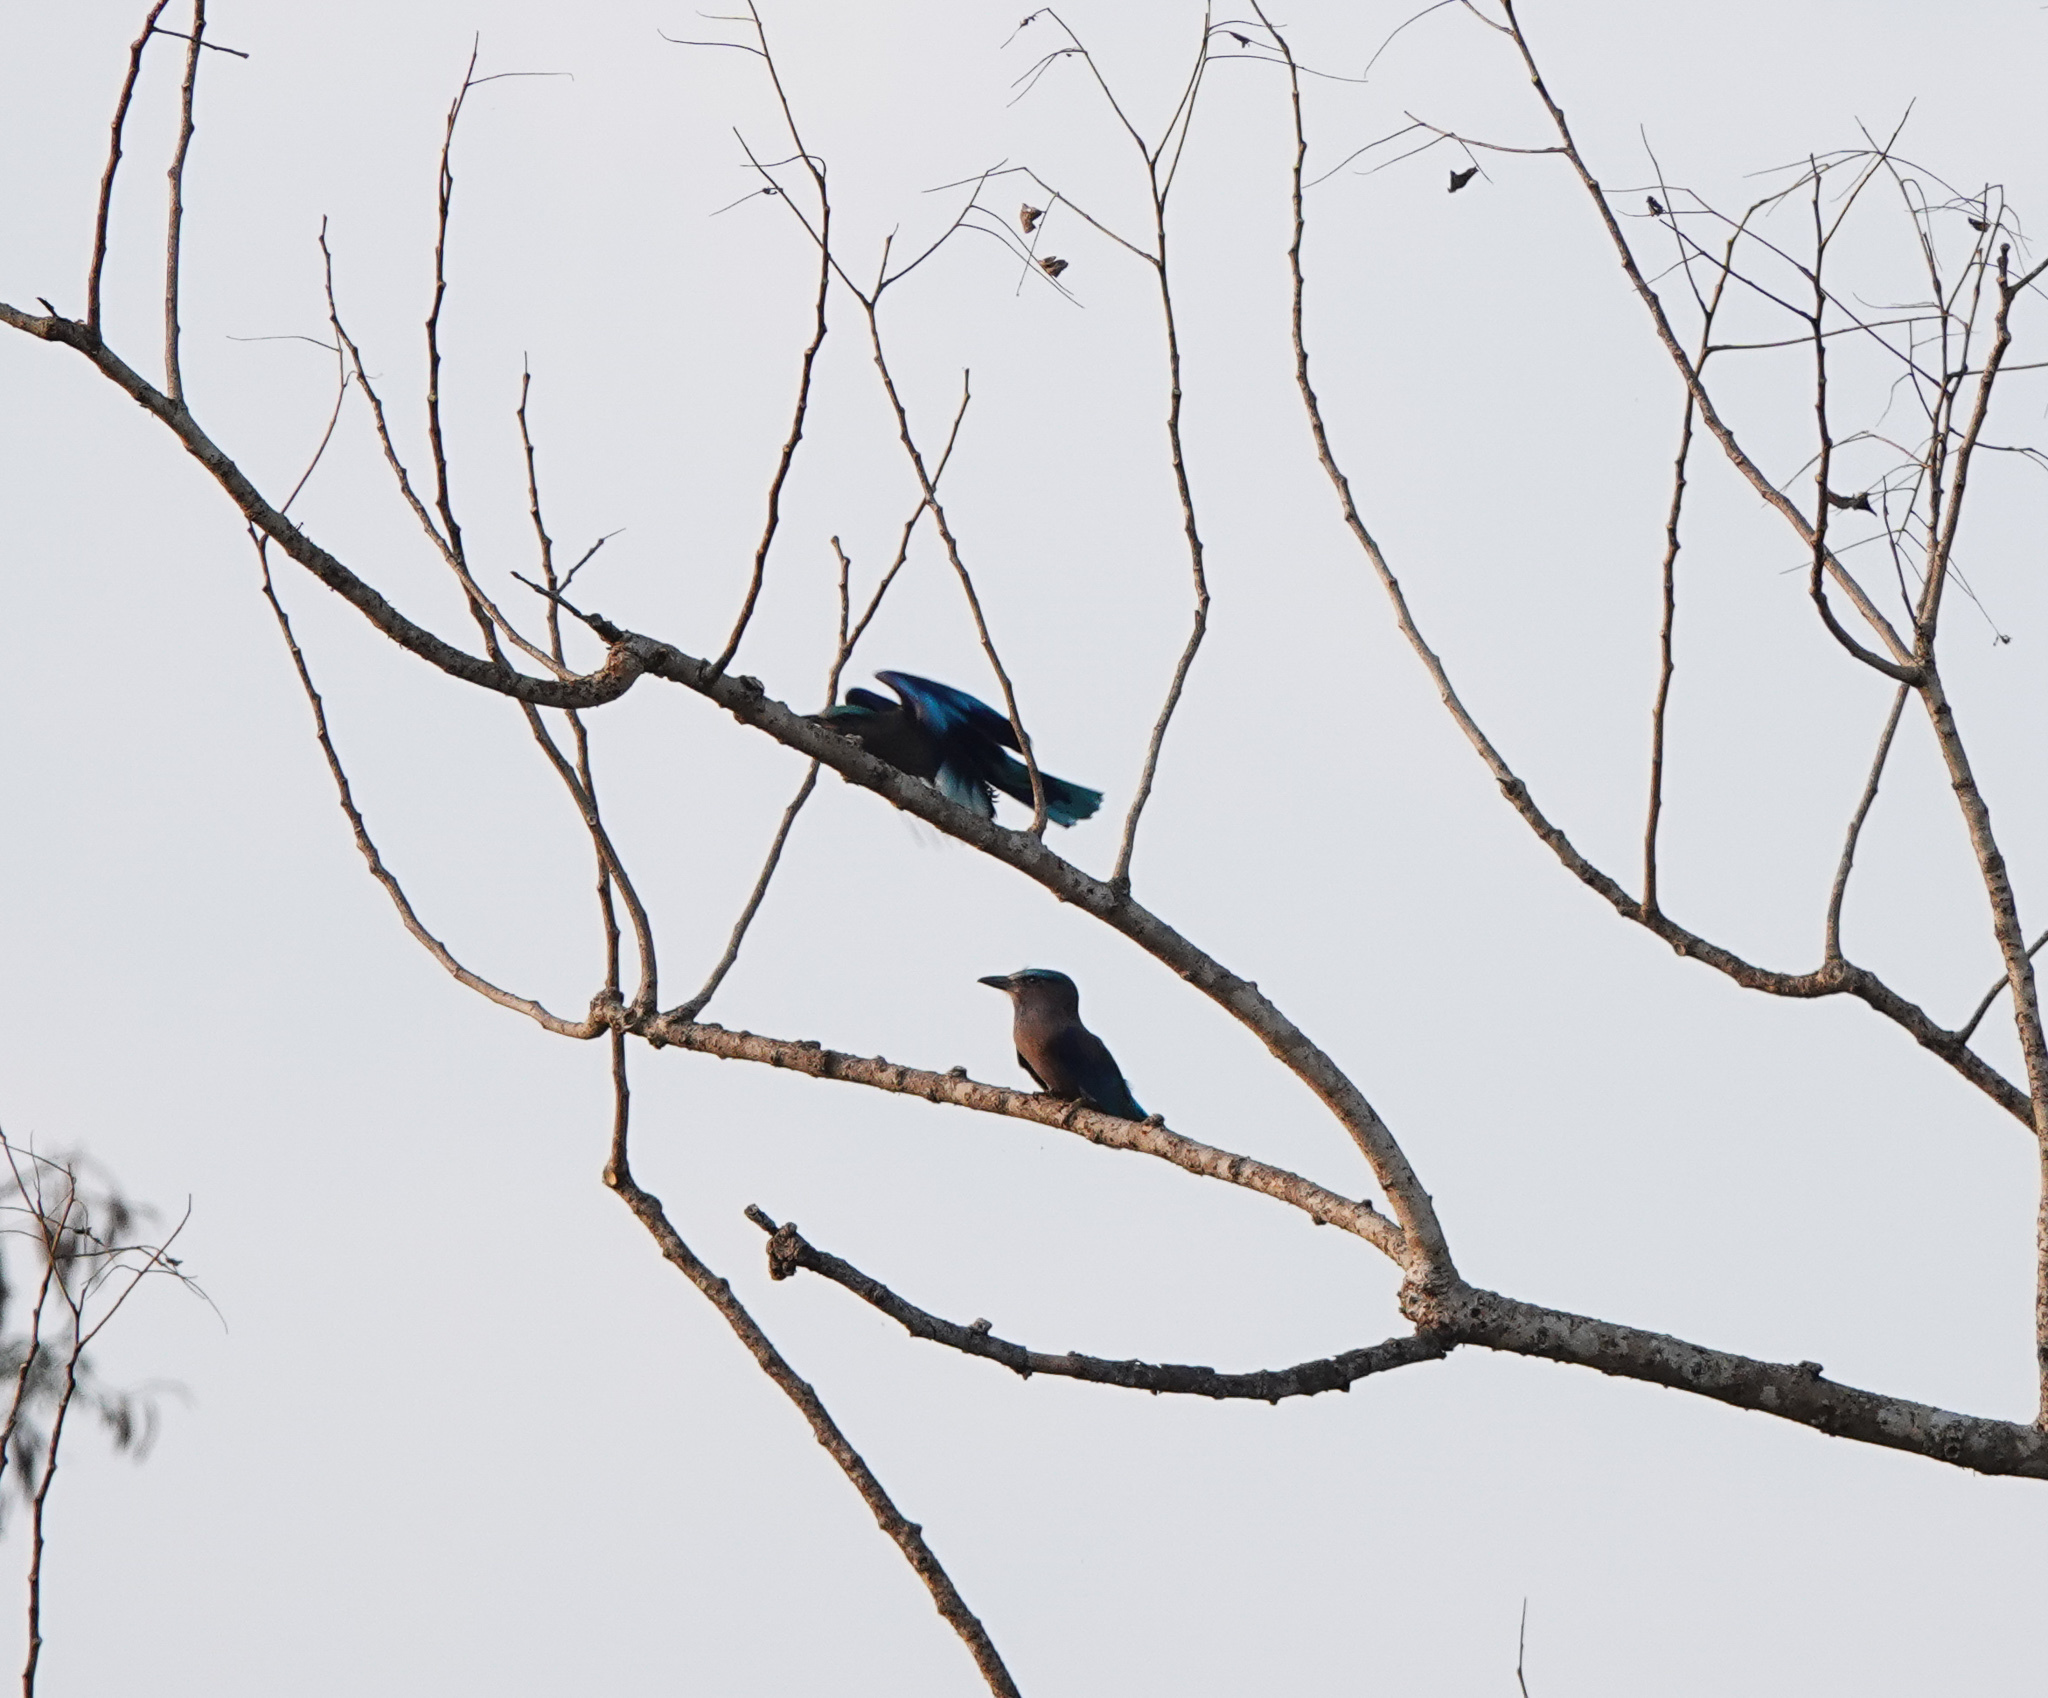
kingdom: Animalia
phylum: Chordata
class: Aves
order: Coraciiformes
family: Coraciidae
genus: Coracias
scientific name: Coracias affinis
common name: Indochinese roller
